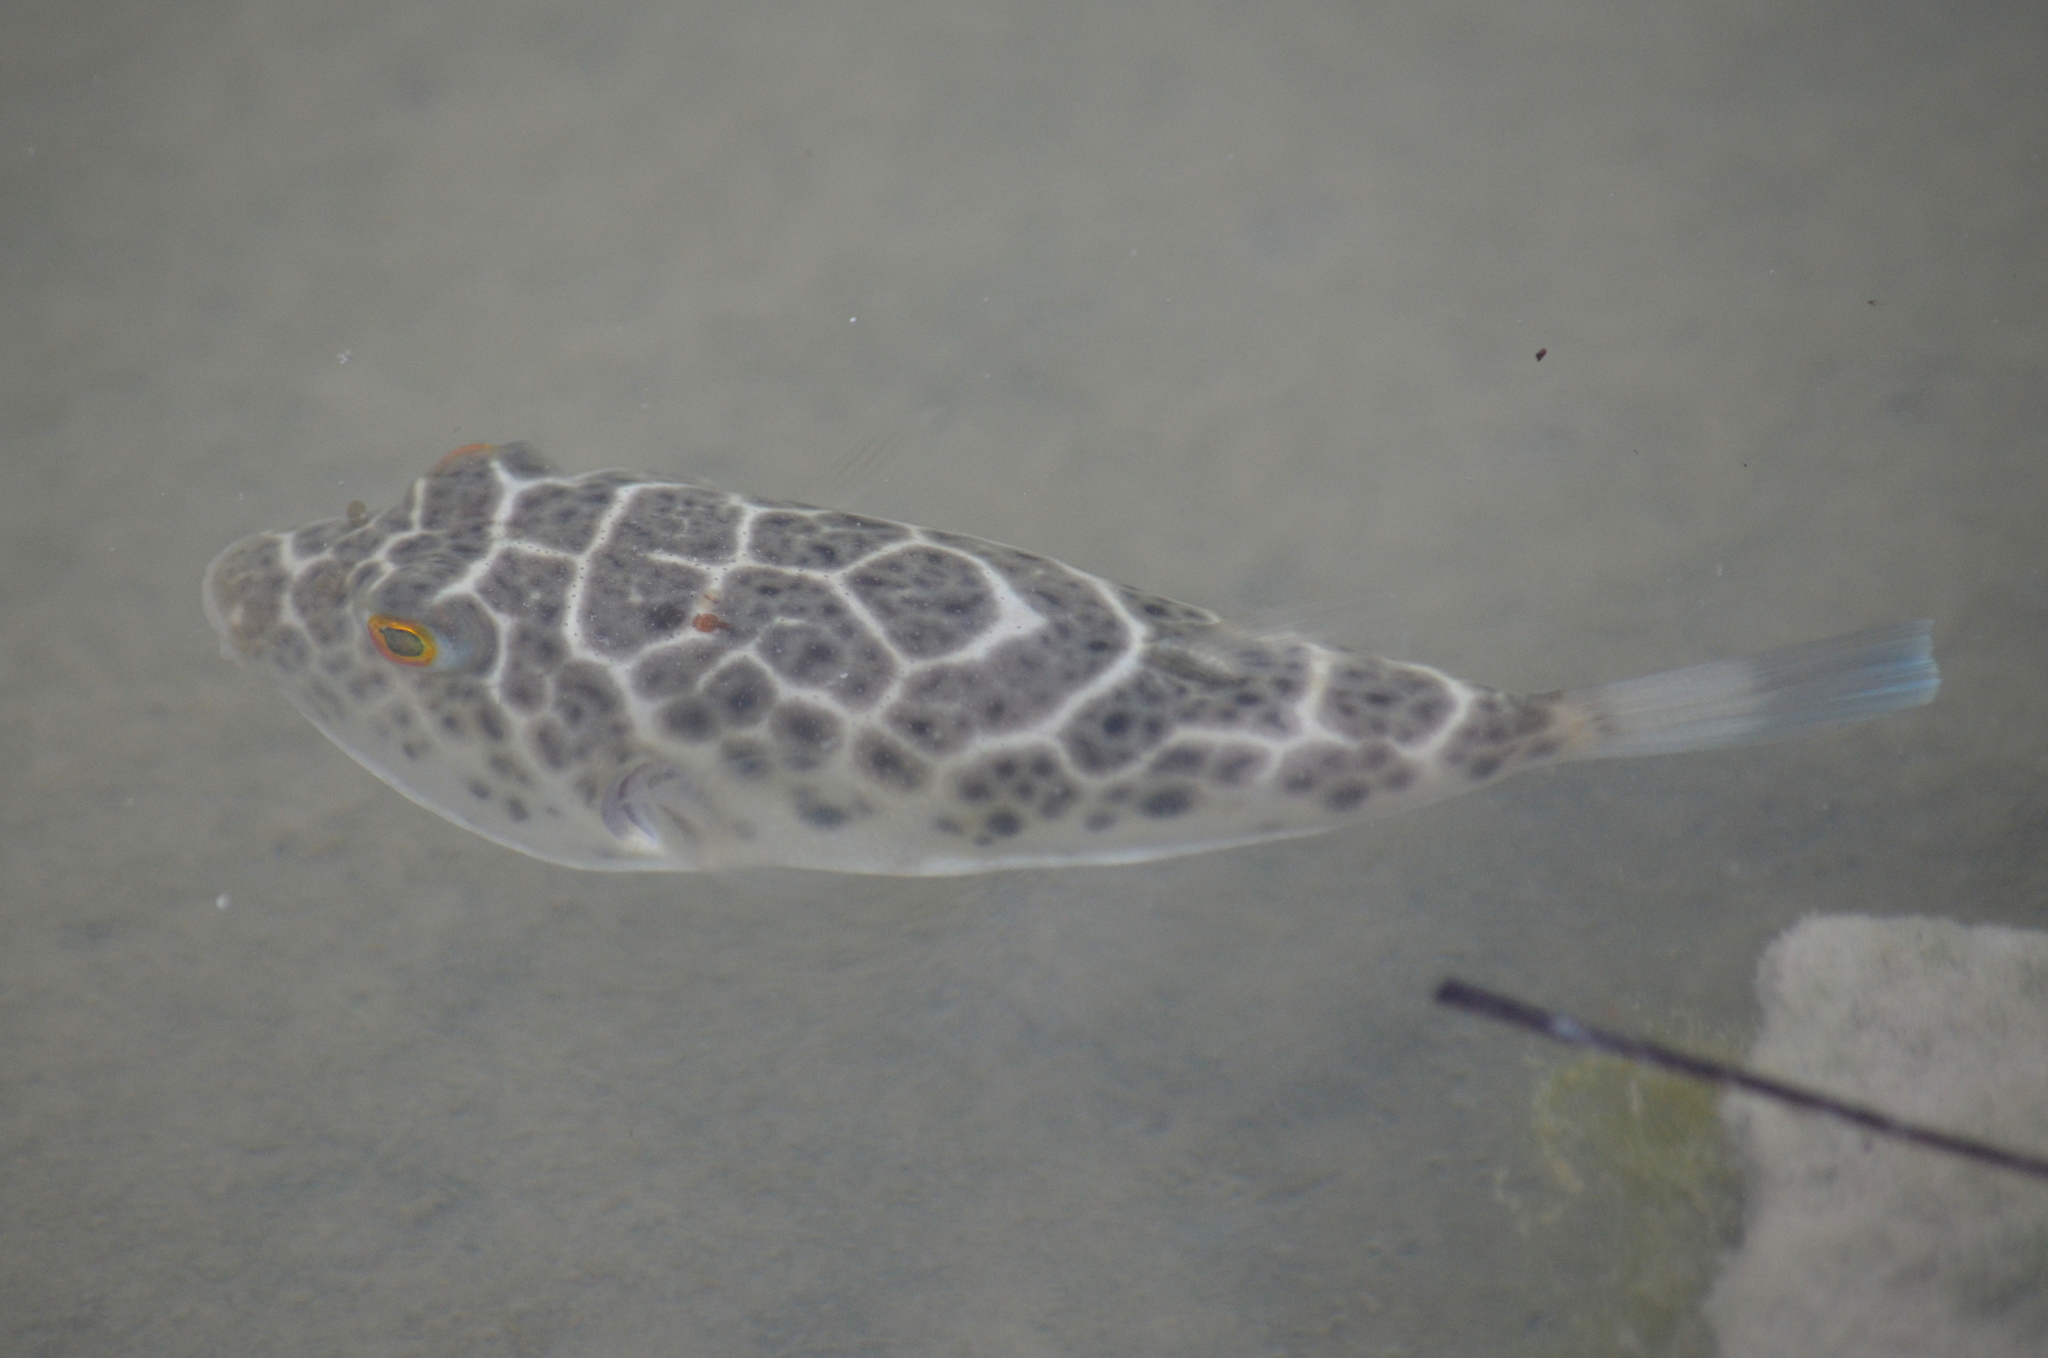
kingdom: Animalia
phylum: Chordata
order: Tetraodontiformes
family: Tetraodontidae
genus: Sphoeroides
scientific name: Sphoeroides testudineus
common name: Checkered puffer
